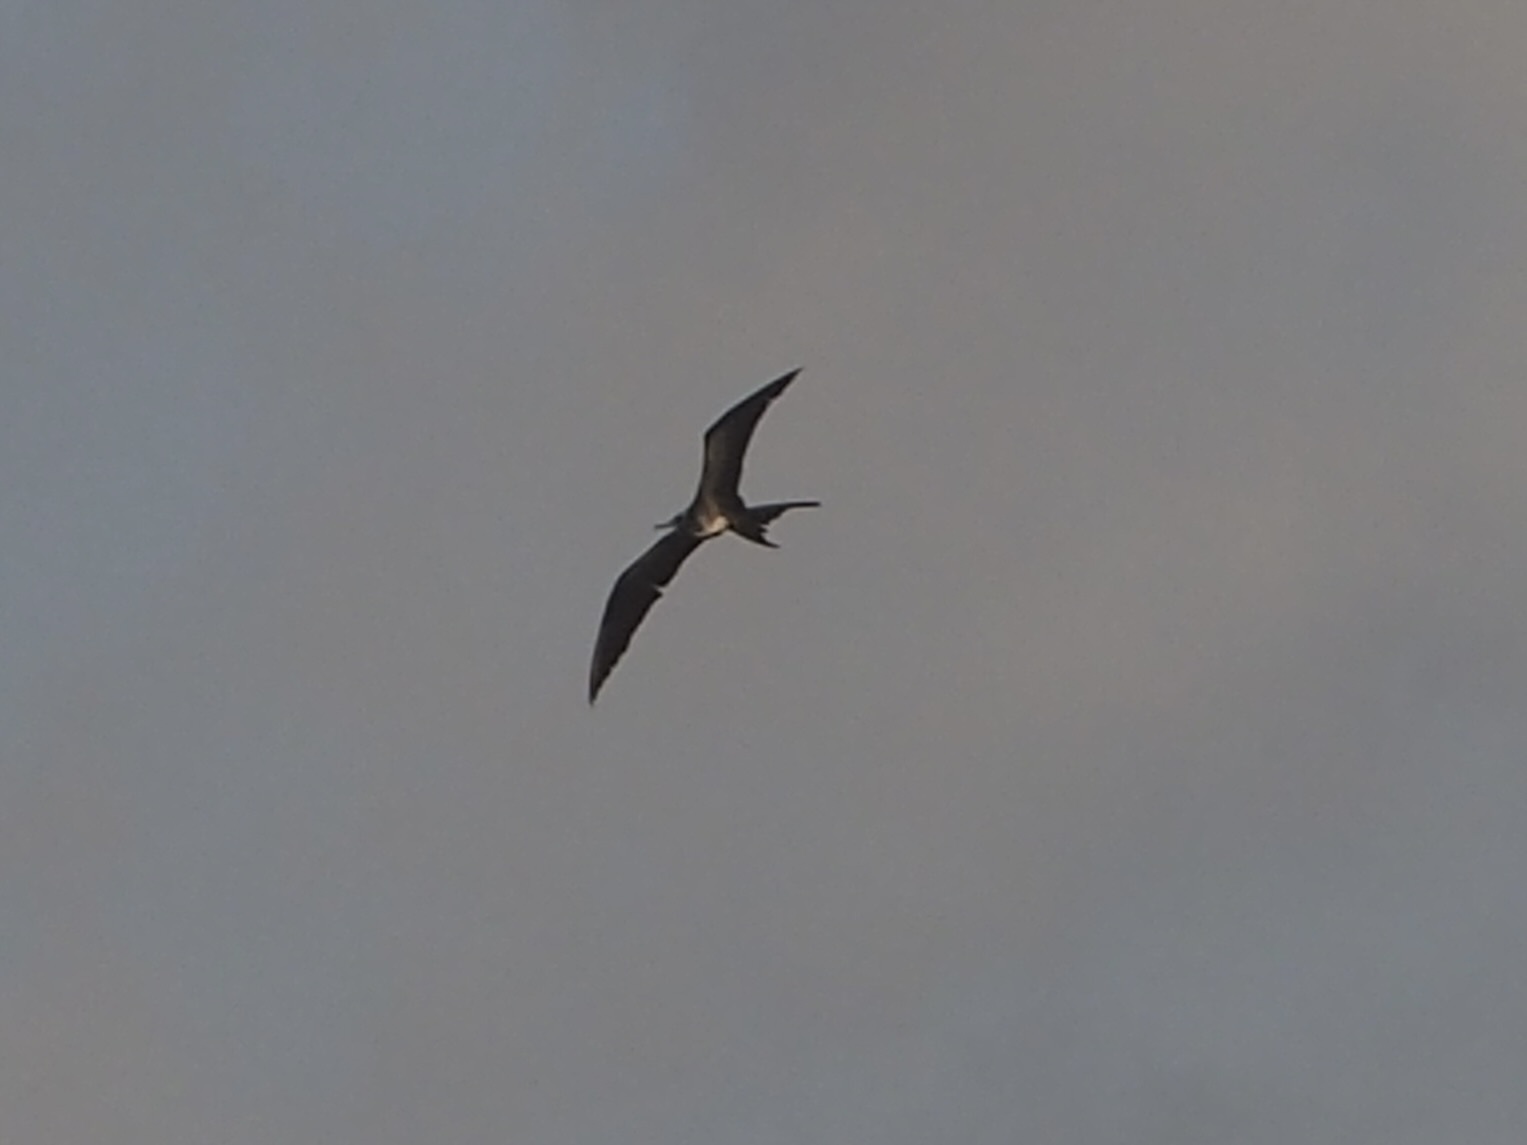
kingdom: Animalia
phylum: Chordata
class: Aves
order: Suliformes
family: Fregatidae
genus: Fregata
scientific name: Fregata magnificens
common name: Magnificent frigatebird
